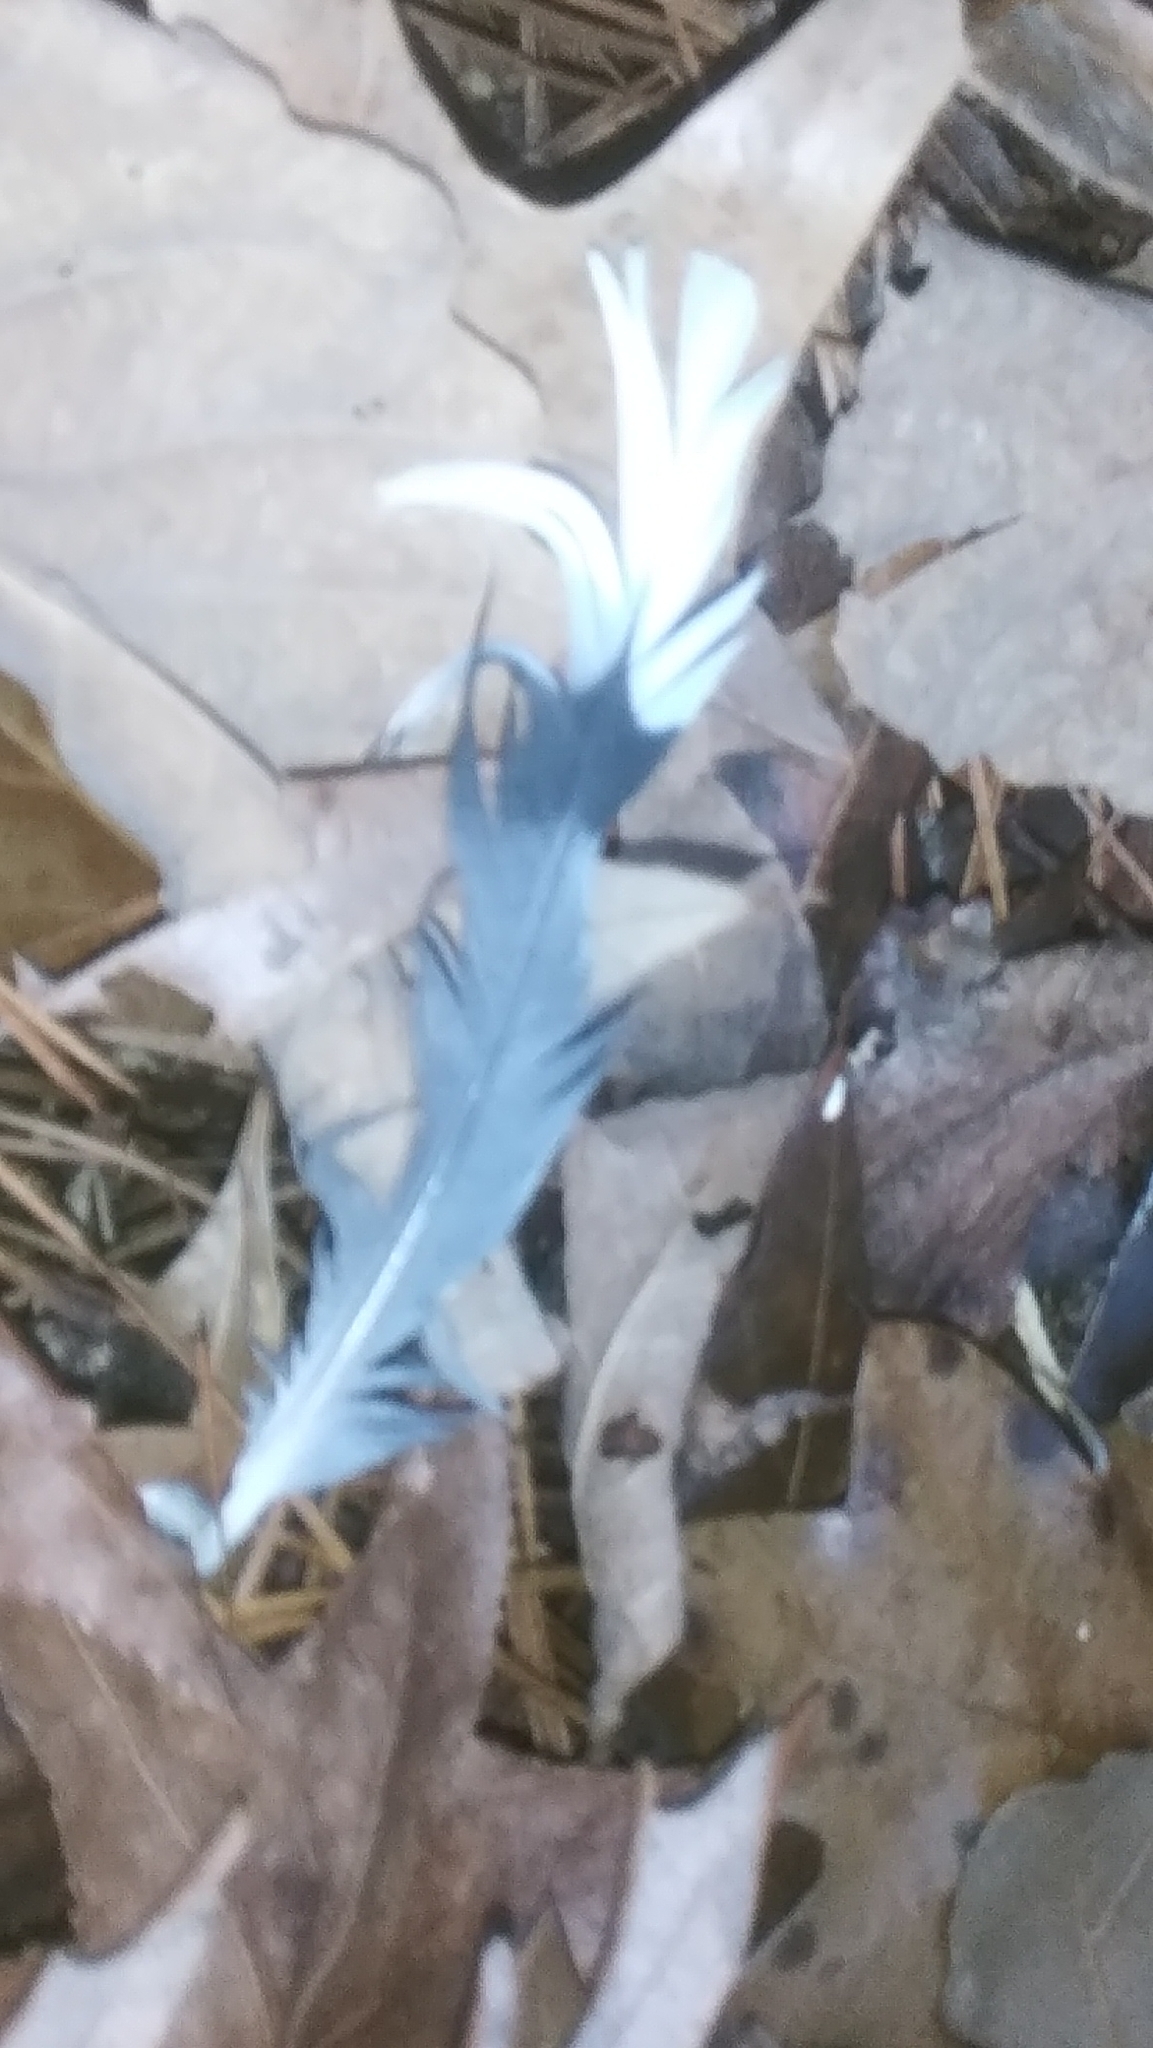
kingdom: Animalia
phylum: Chordata
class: Aves
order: Columbiformes
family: Columbidae
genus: Zenaida
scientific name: Zenaida macroura
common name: Mourning dove
